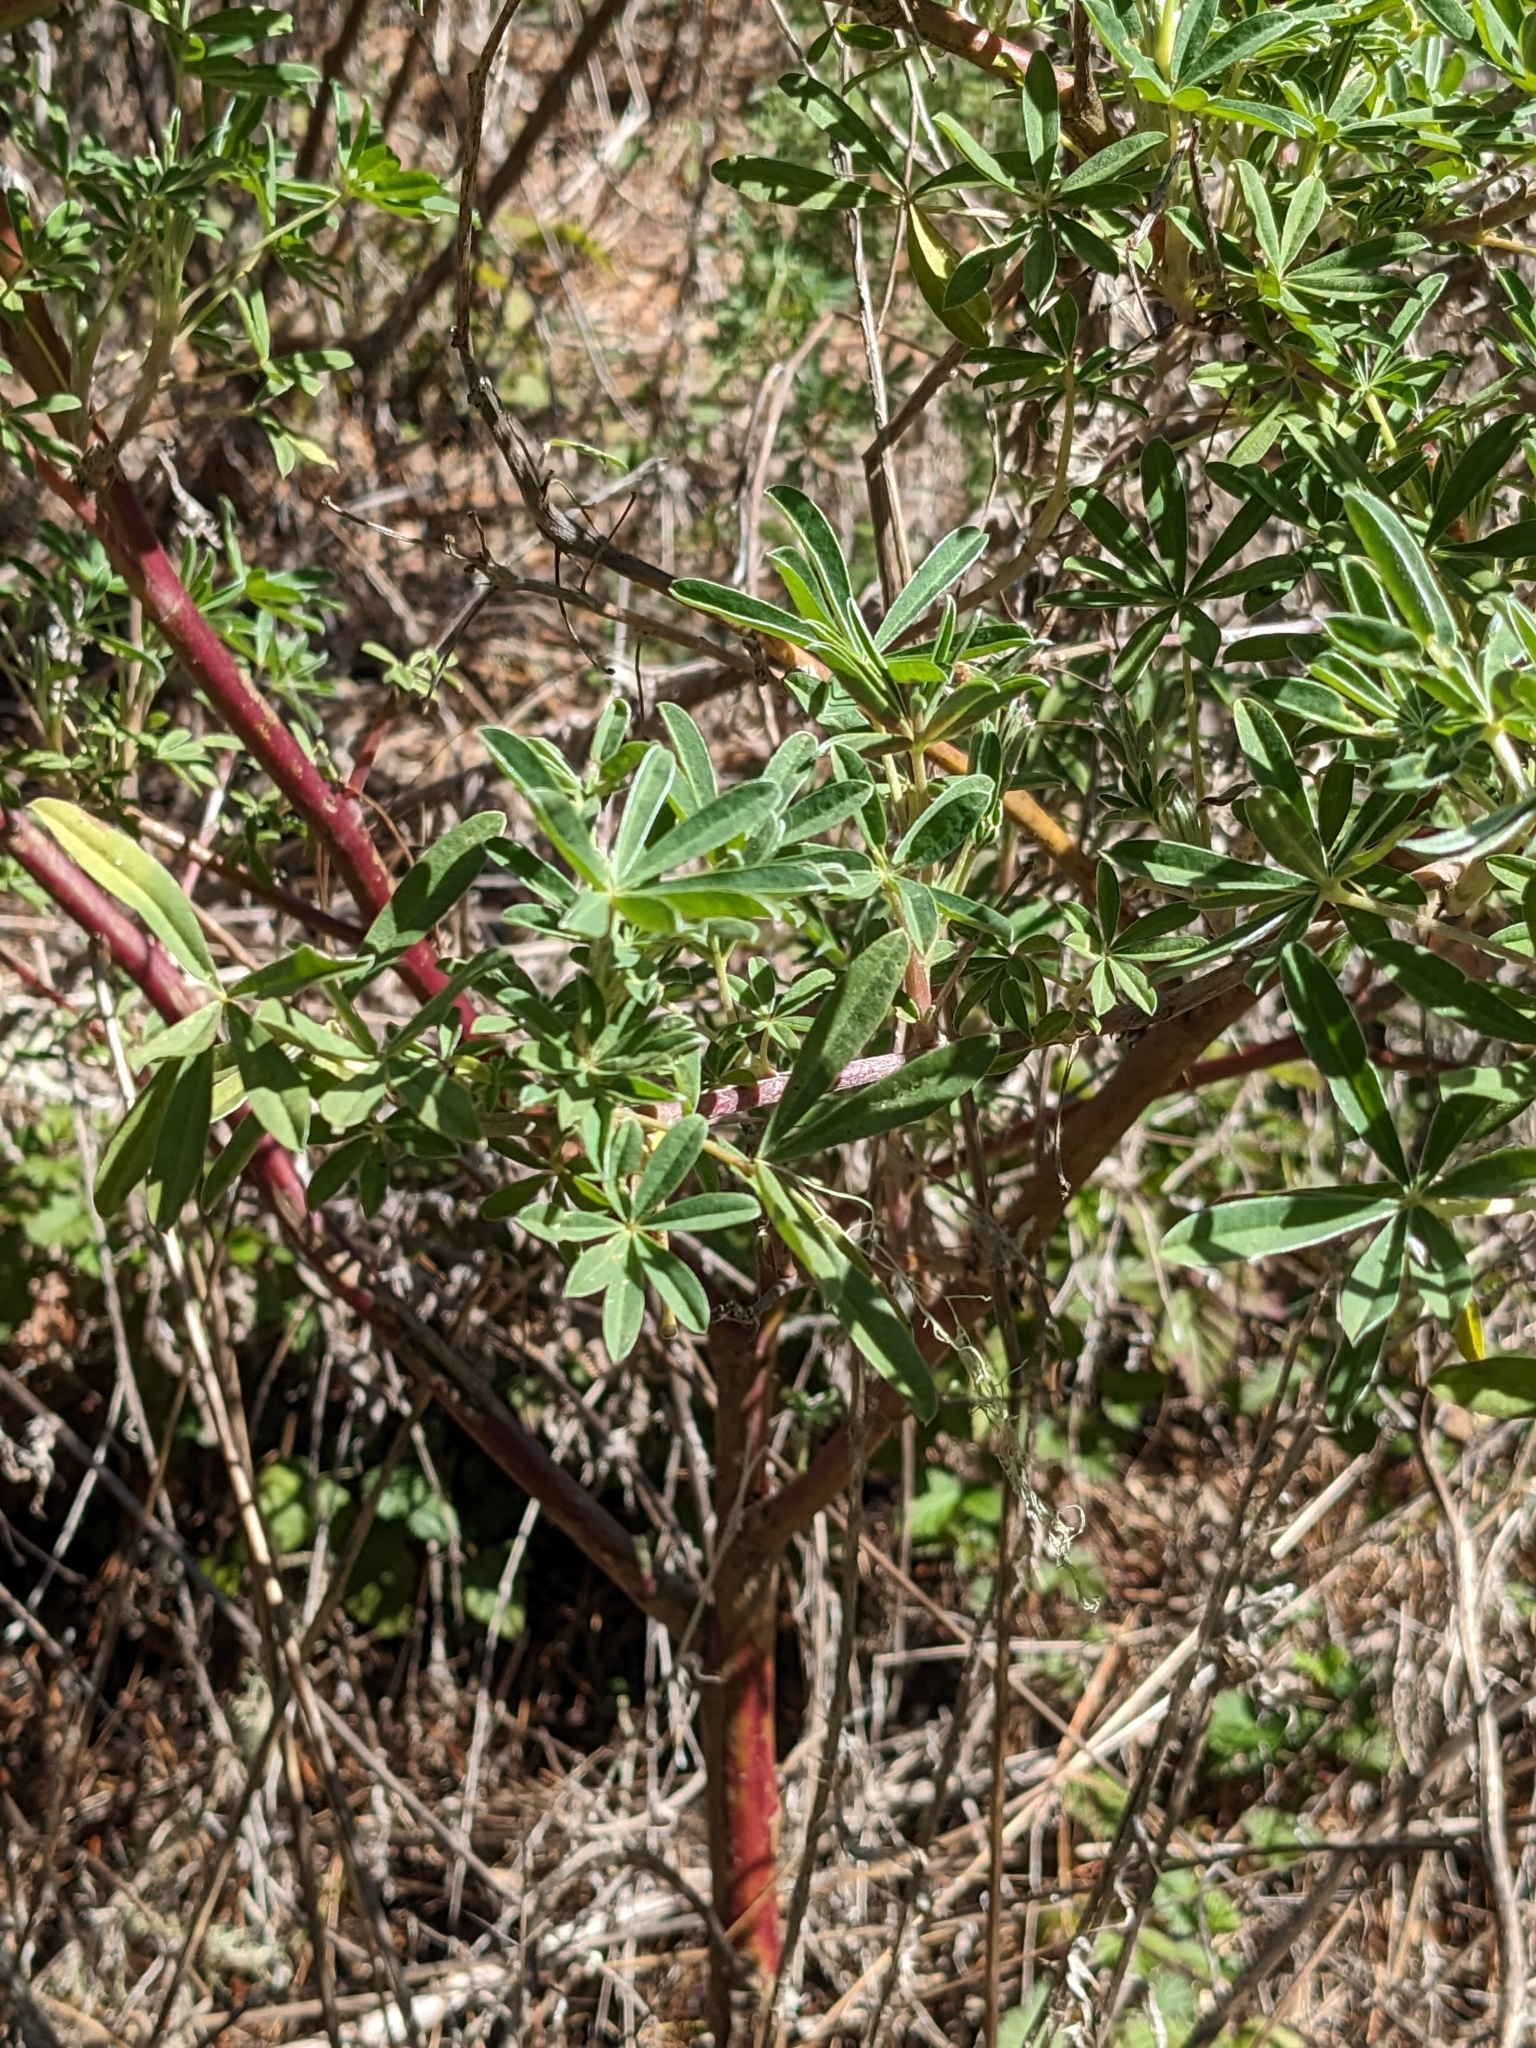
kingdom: Plantae
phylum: Tracheophyta
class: Magnoliopsida
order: Fabales
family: Fabaceae
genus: Lupinus
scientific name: Lupinus arboreus
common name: Yellow bush lupine
